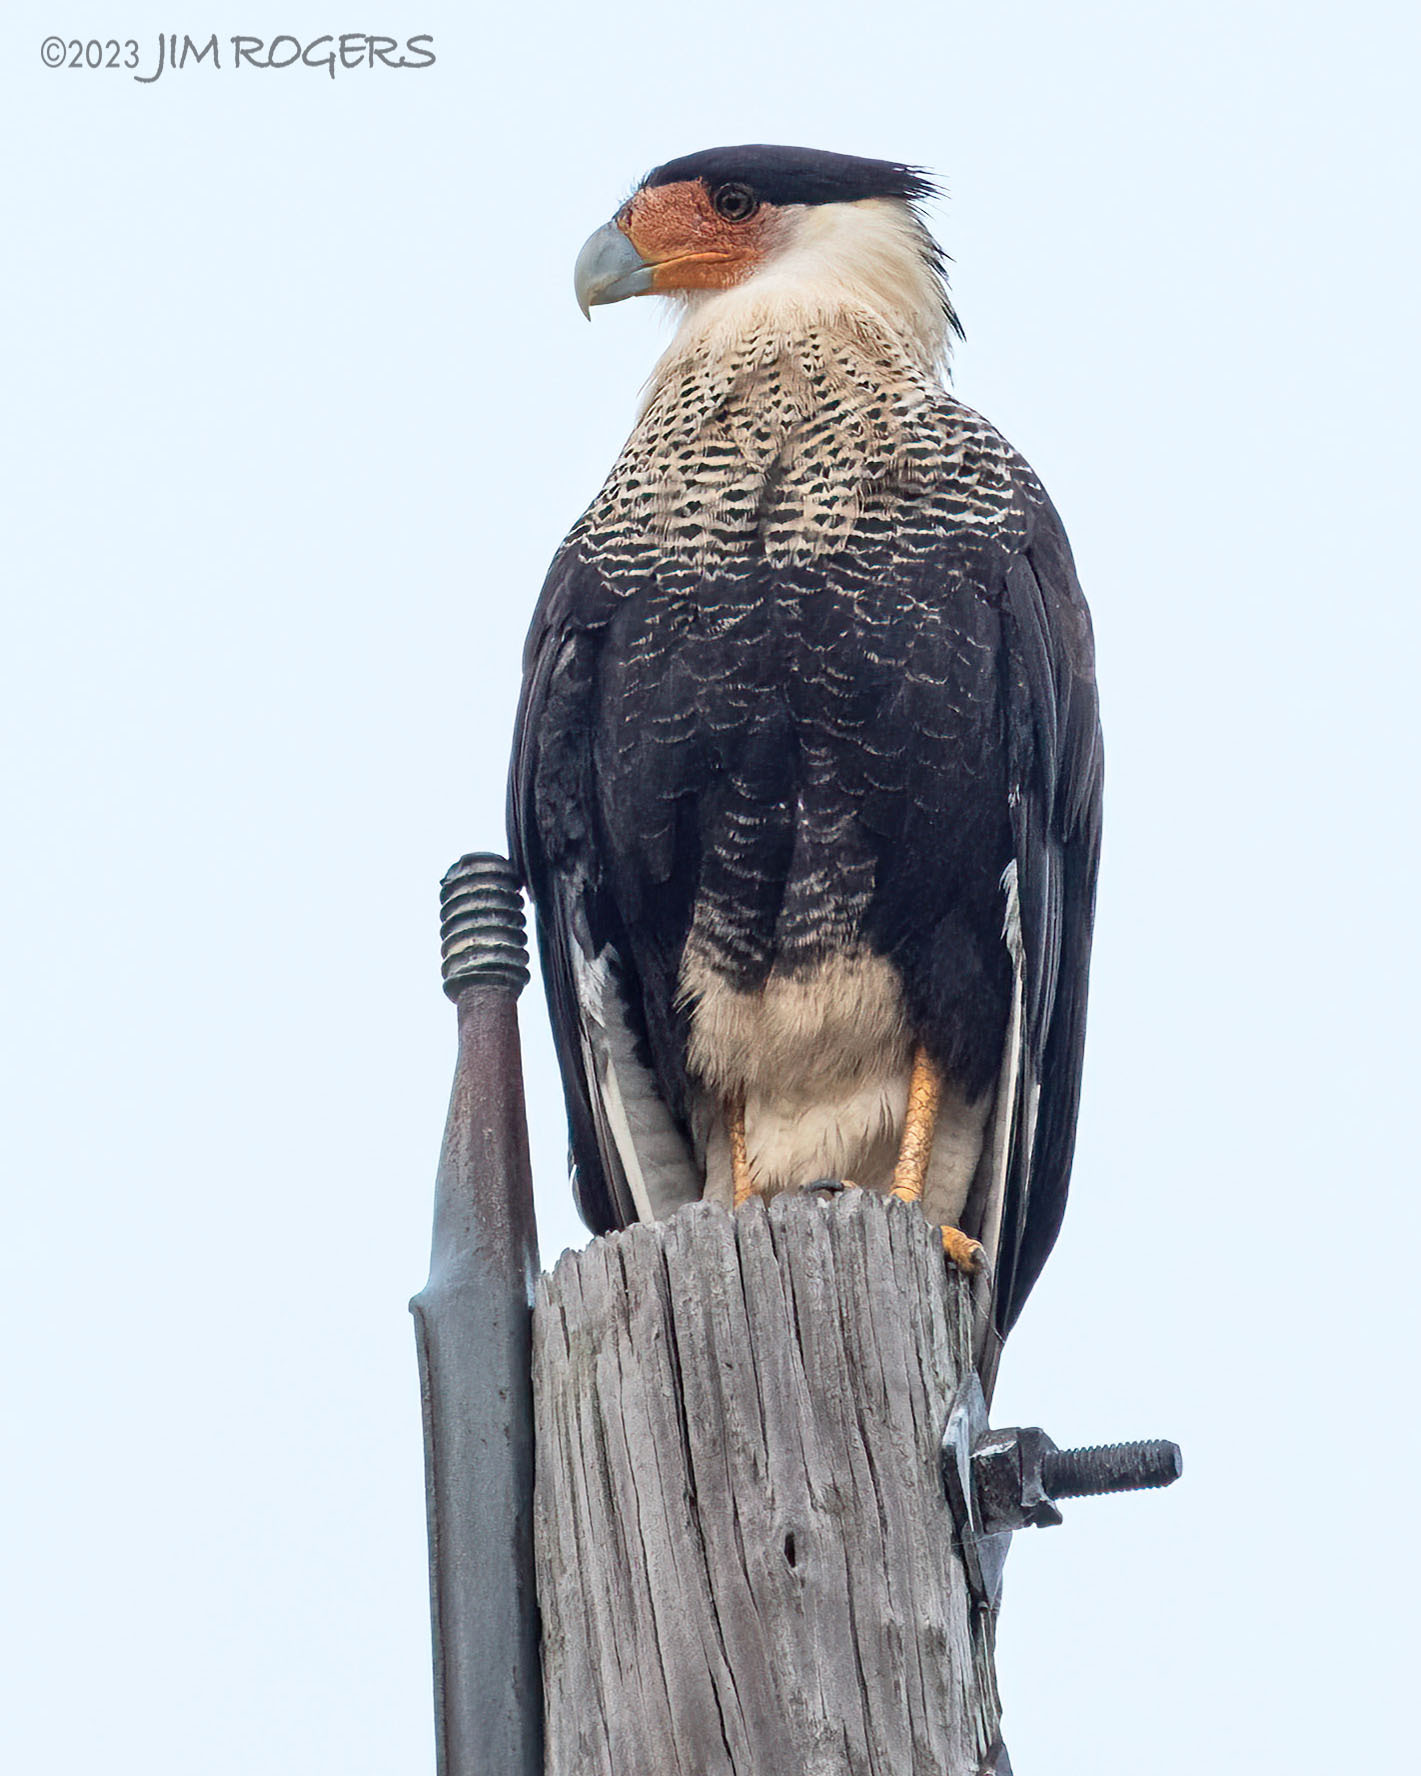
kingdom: Animalia
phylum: Chordata
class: Aves
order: Falconiformes
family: Falconidae
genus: Caracara
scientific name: Caracara plancus
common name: Southern caracara
